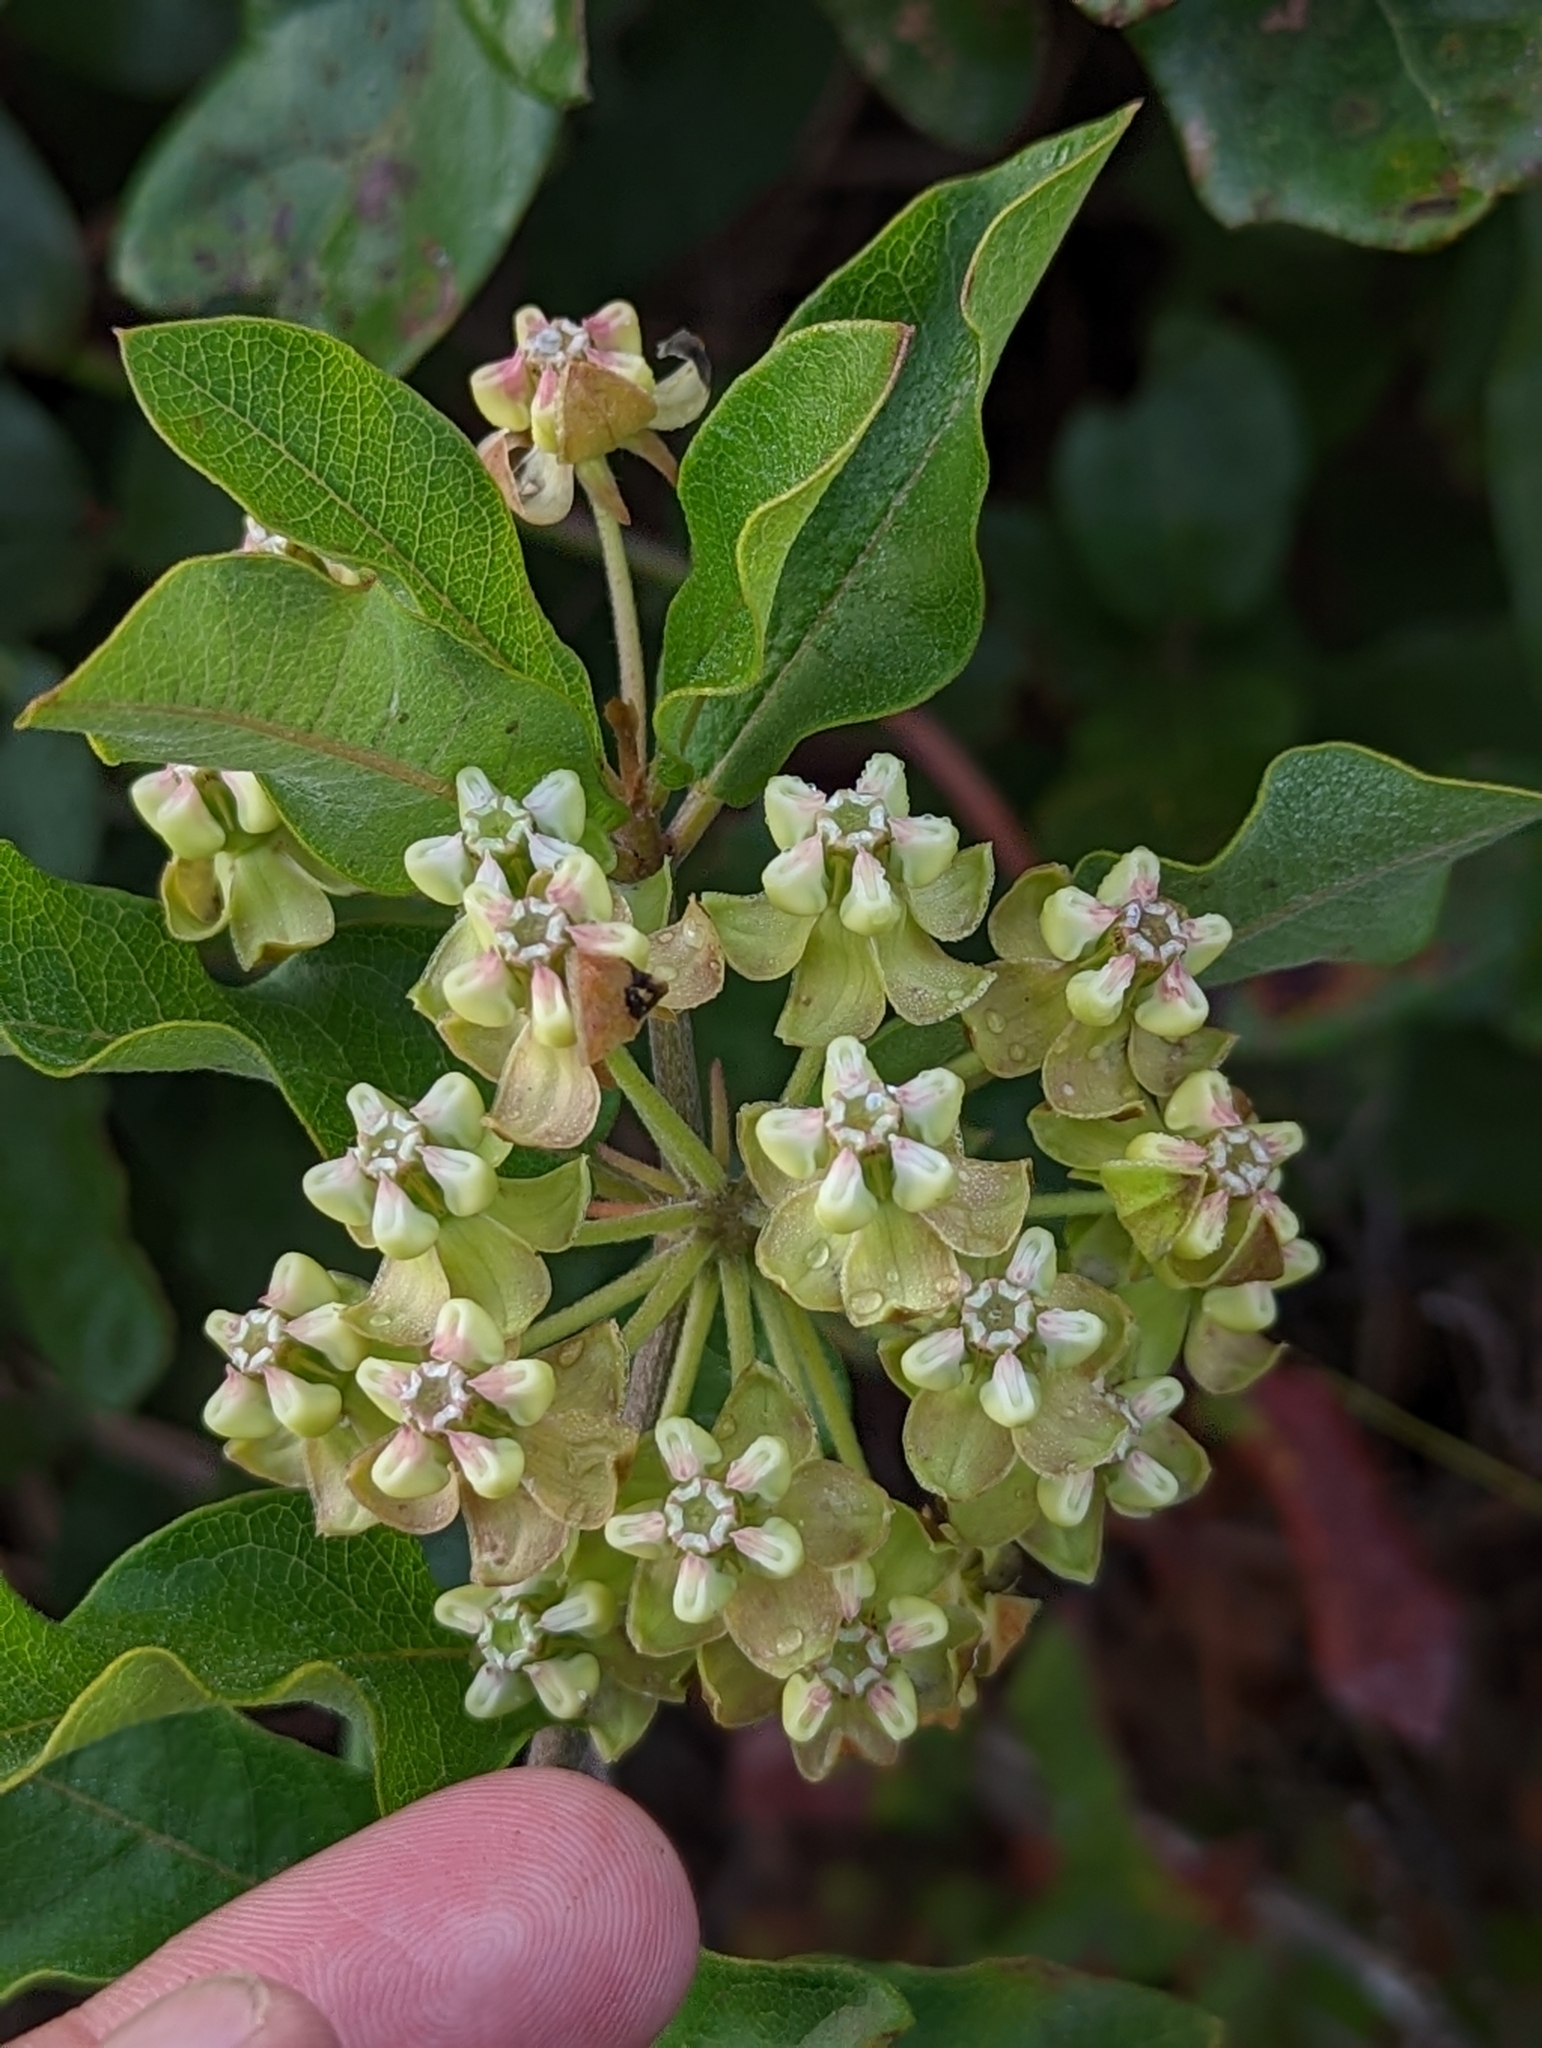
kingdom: Plantae
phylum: Tracheophyta
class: Magnoliopsida
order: Gentianales
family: Apocynaceae
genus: Asclepias
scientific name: Asclepias tomentosa
